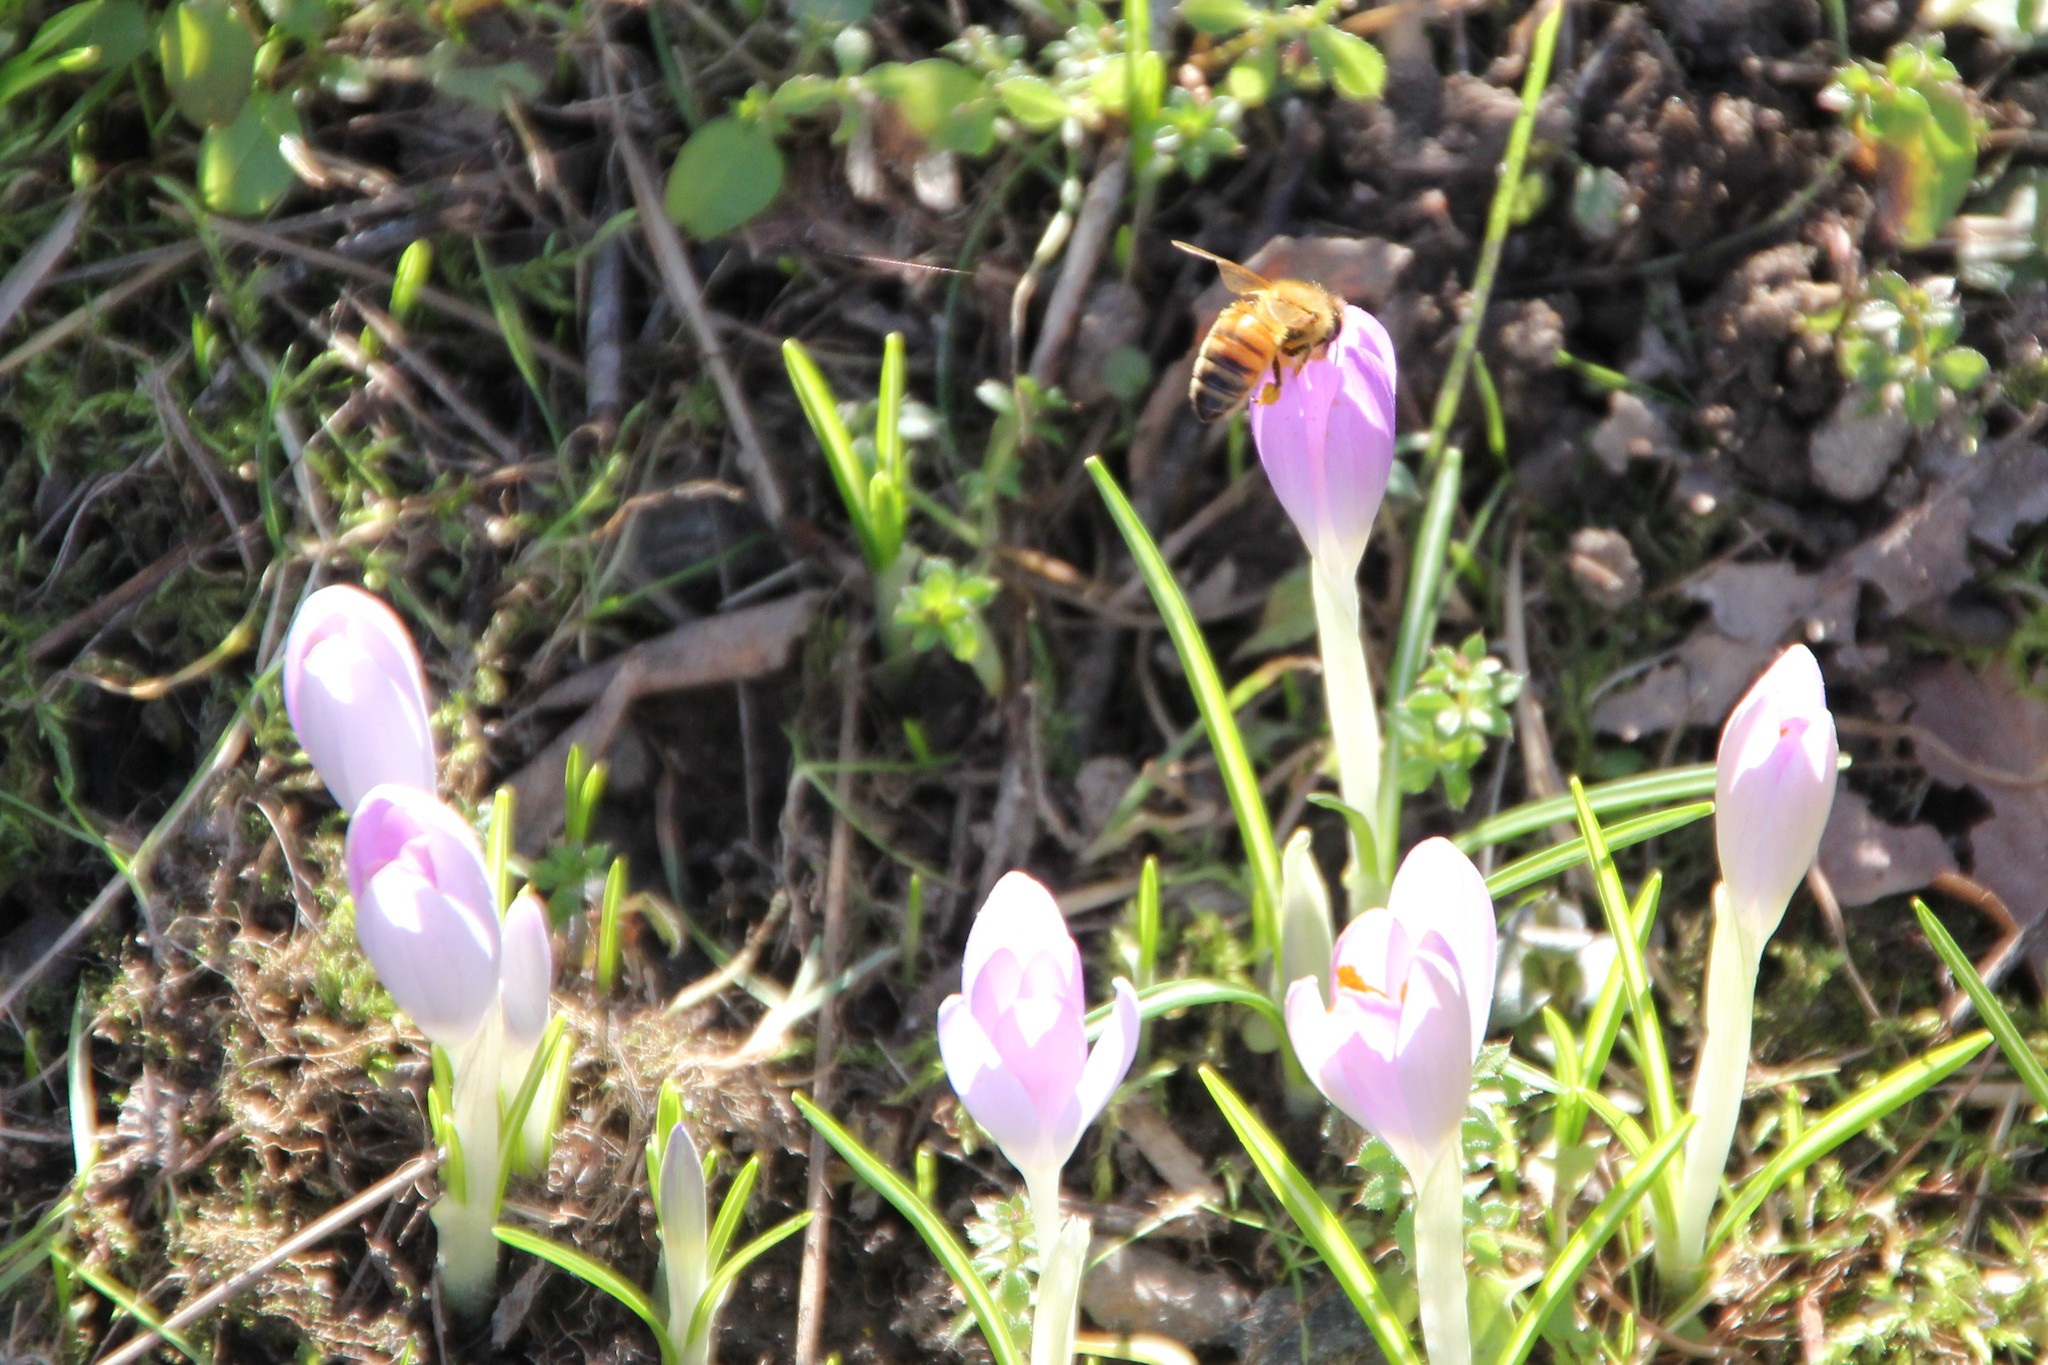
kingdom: Animalia
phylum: Arthropoda
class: Insecta
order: Hymenoptera
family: Apidae
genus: Apis
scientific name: Apis mellifera
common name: Honey bee
